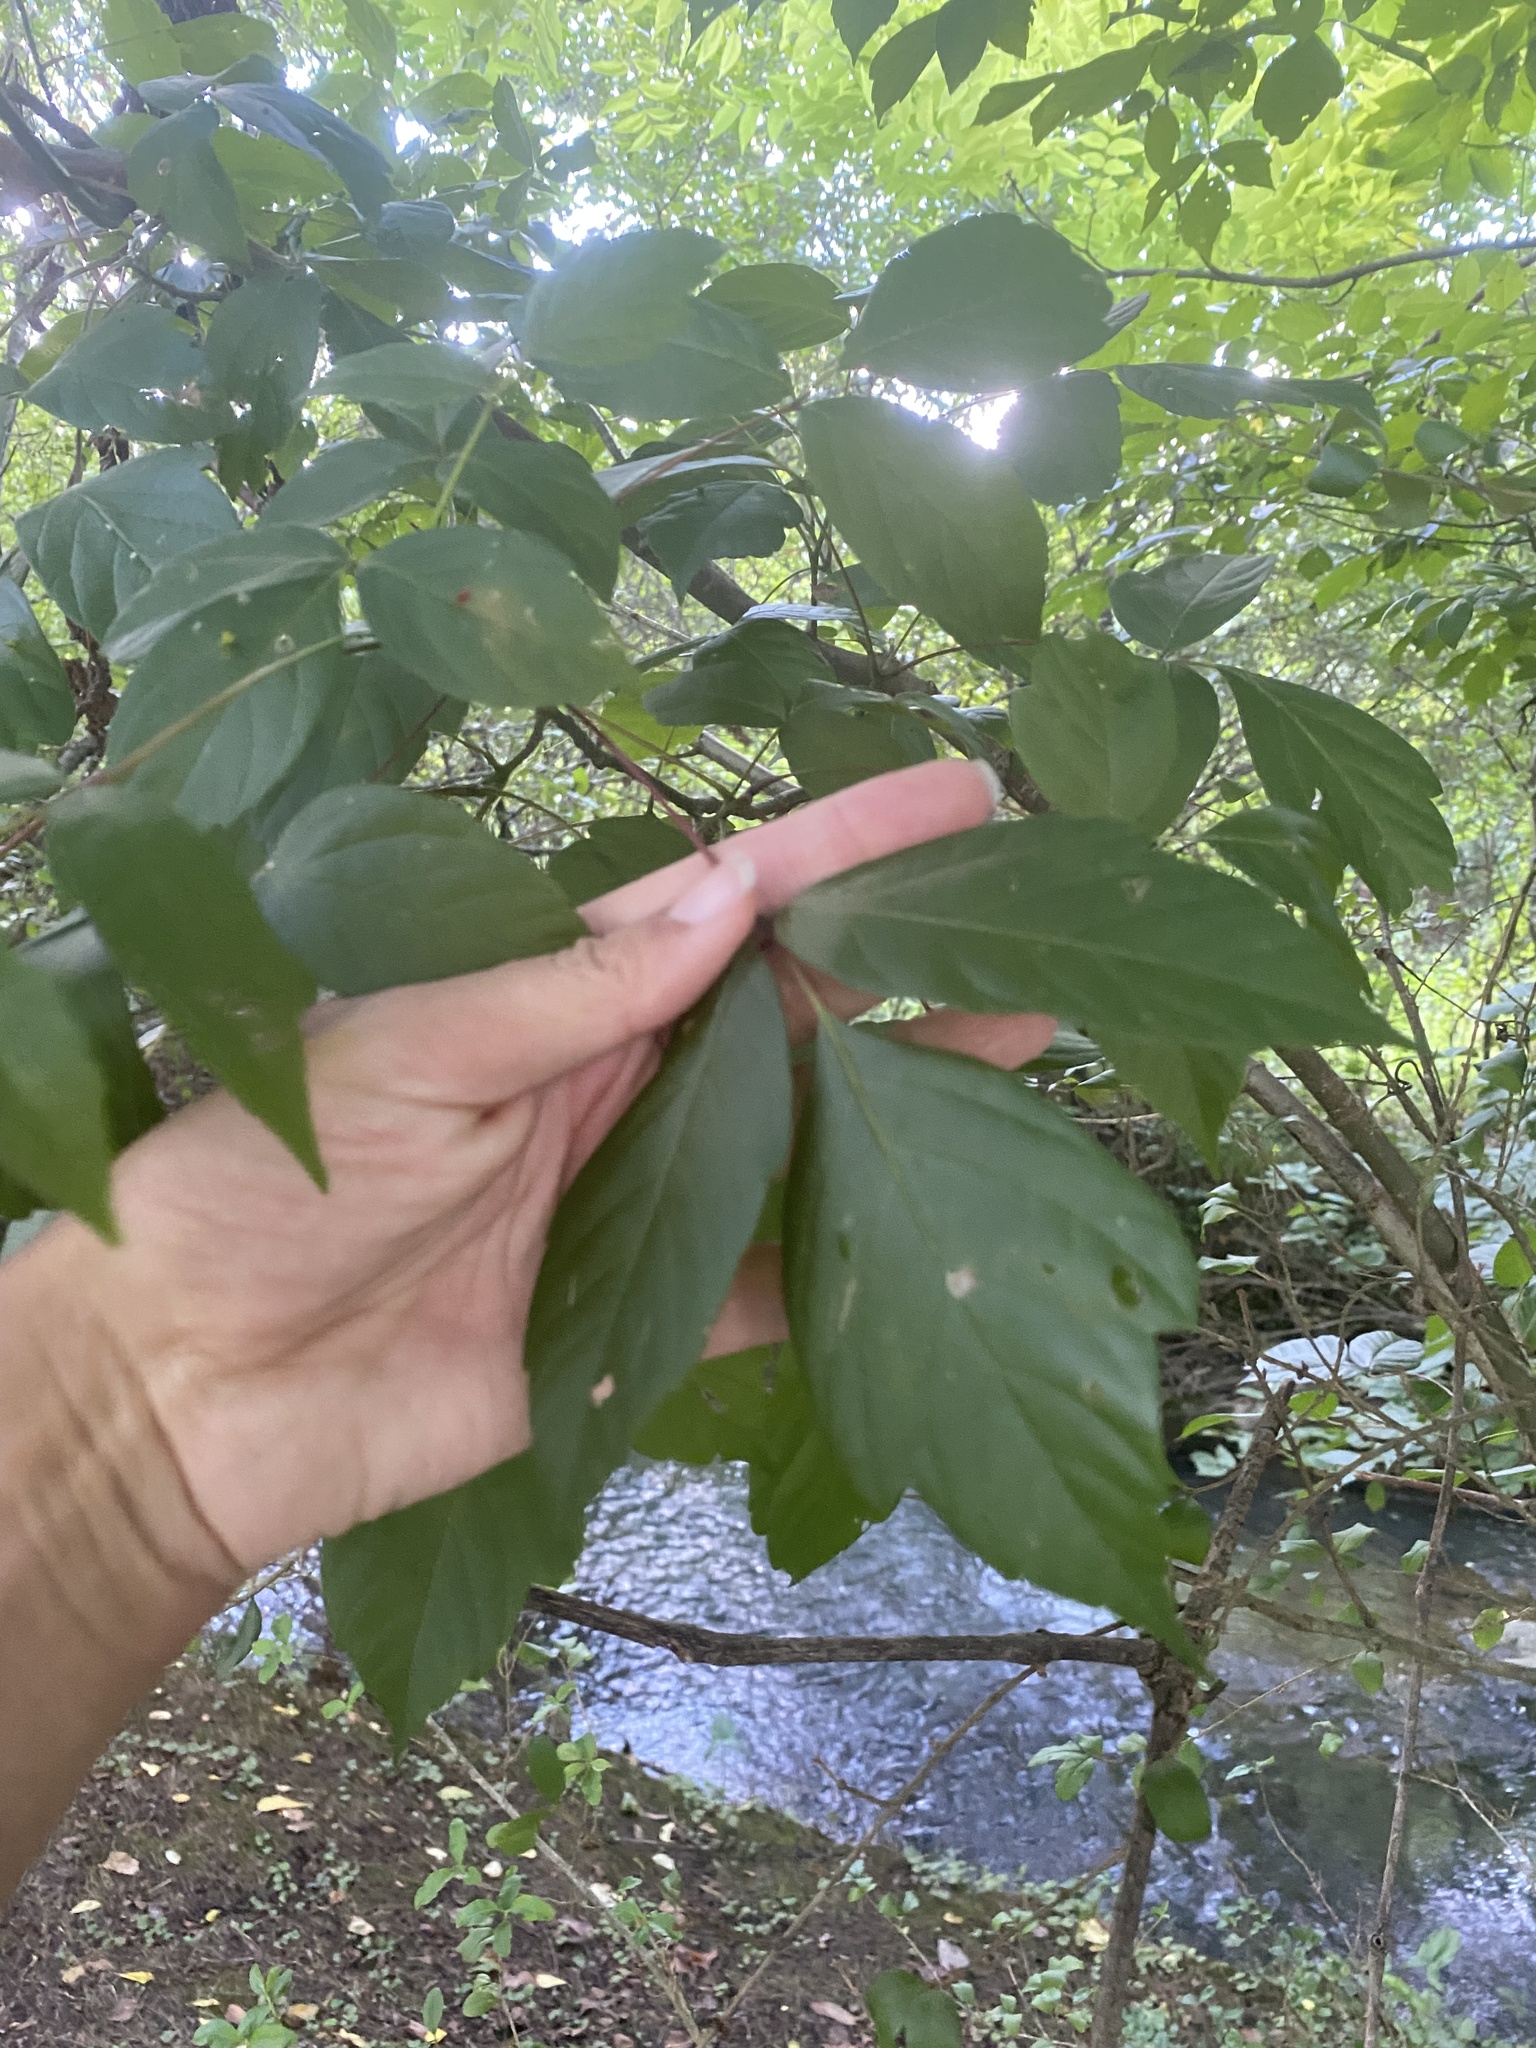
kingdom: Plantae
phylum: Tracheophyta
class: Magnoliopsida
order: Sapindales
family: Sapindaceae
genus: Acer
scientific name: Acer negundo
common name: Ashleaf maple
